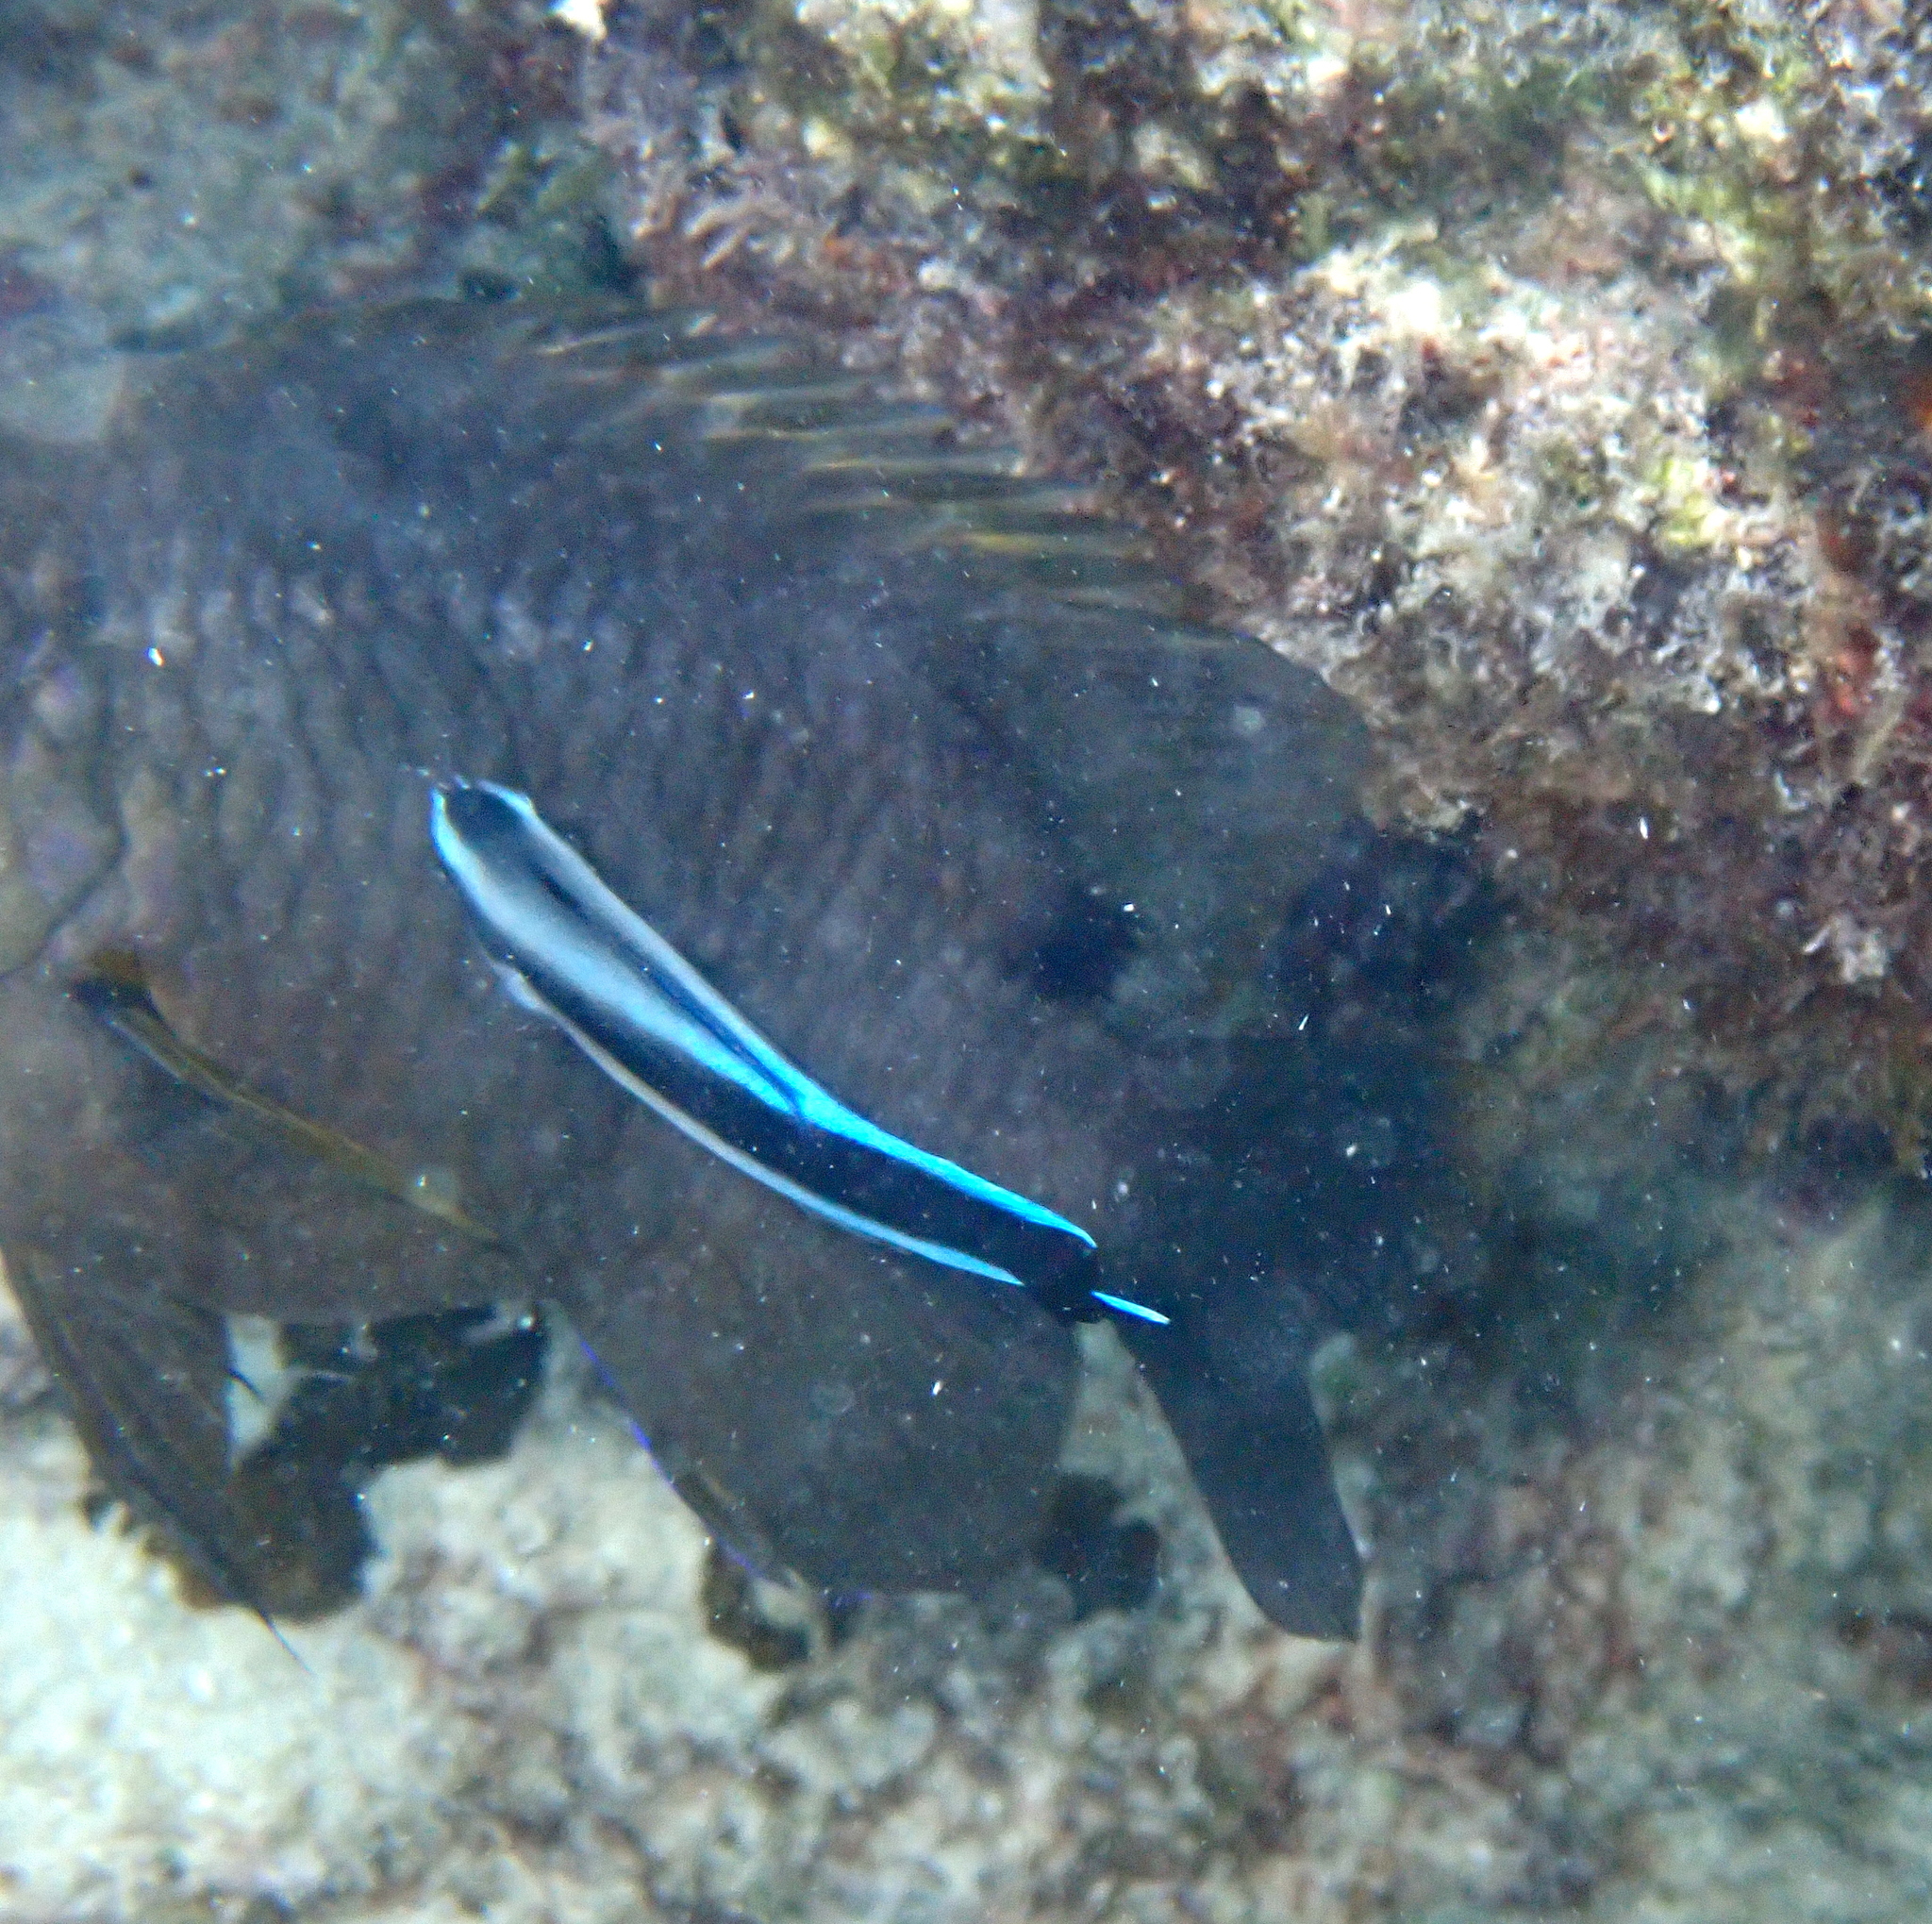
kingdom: Animalia
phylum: Chordata
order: Perciformes
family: Labridae
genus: Labroides
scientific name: Labroides dimidiatus
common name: Blue diesel wrasse
